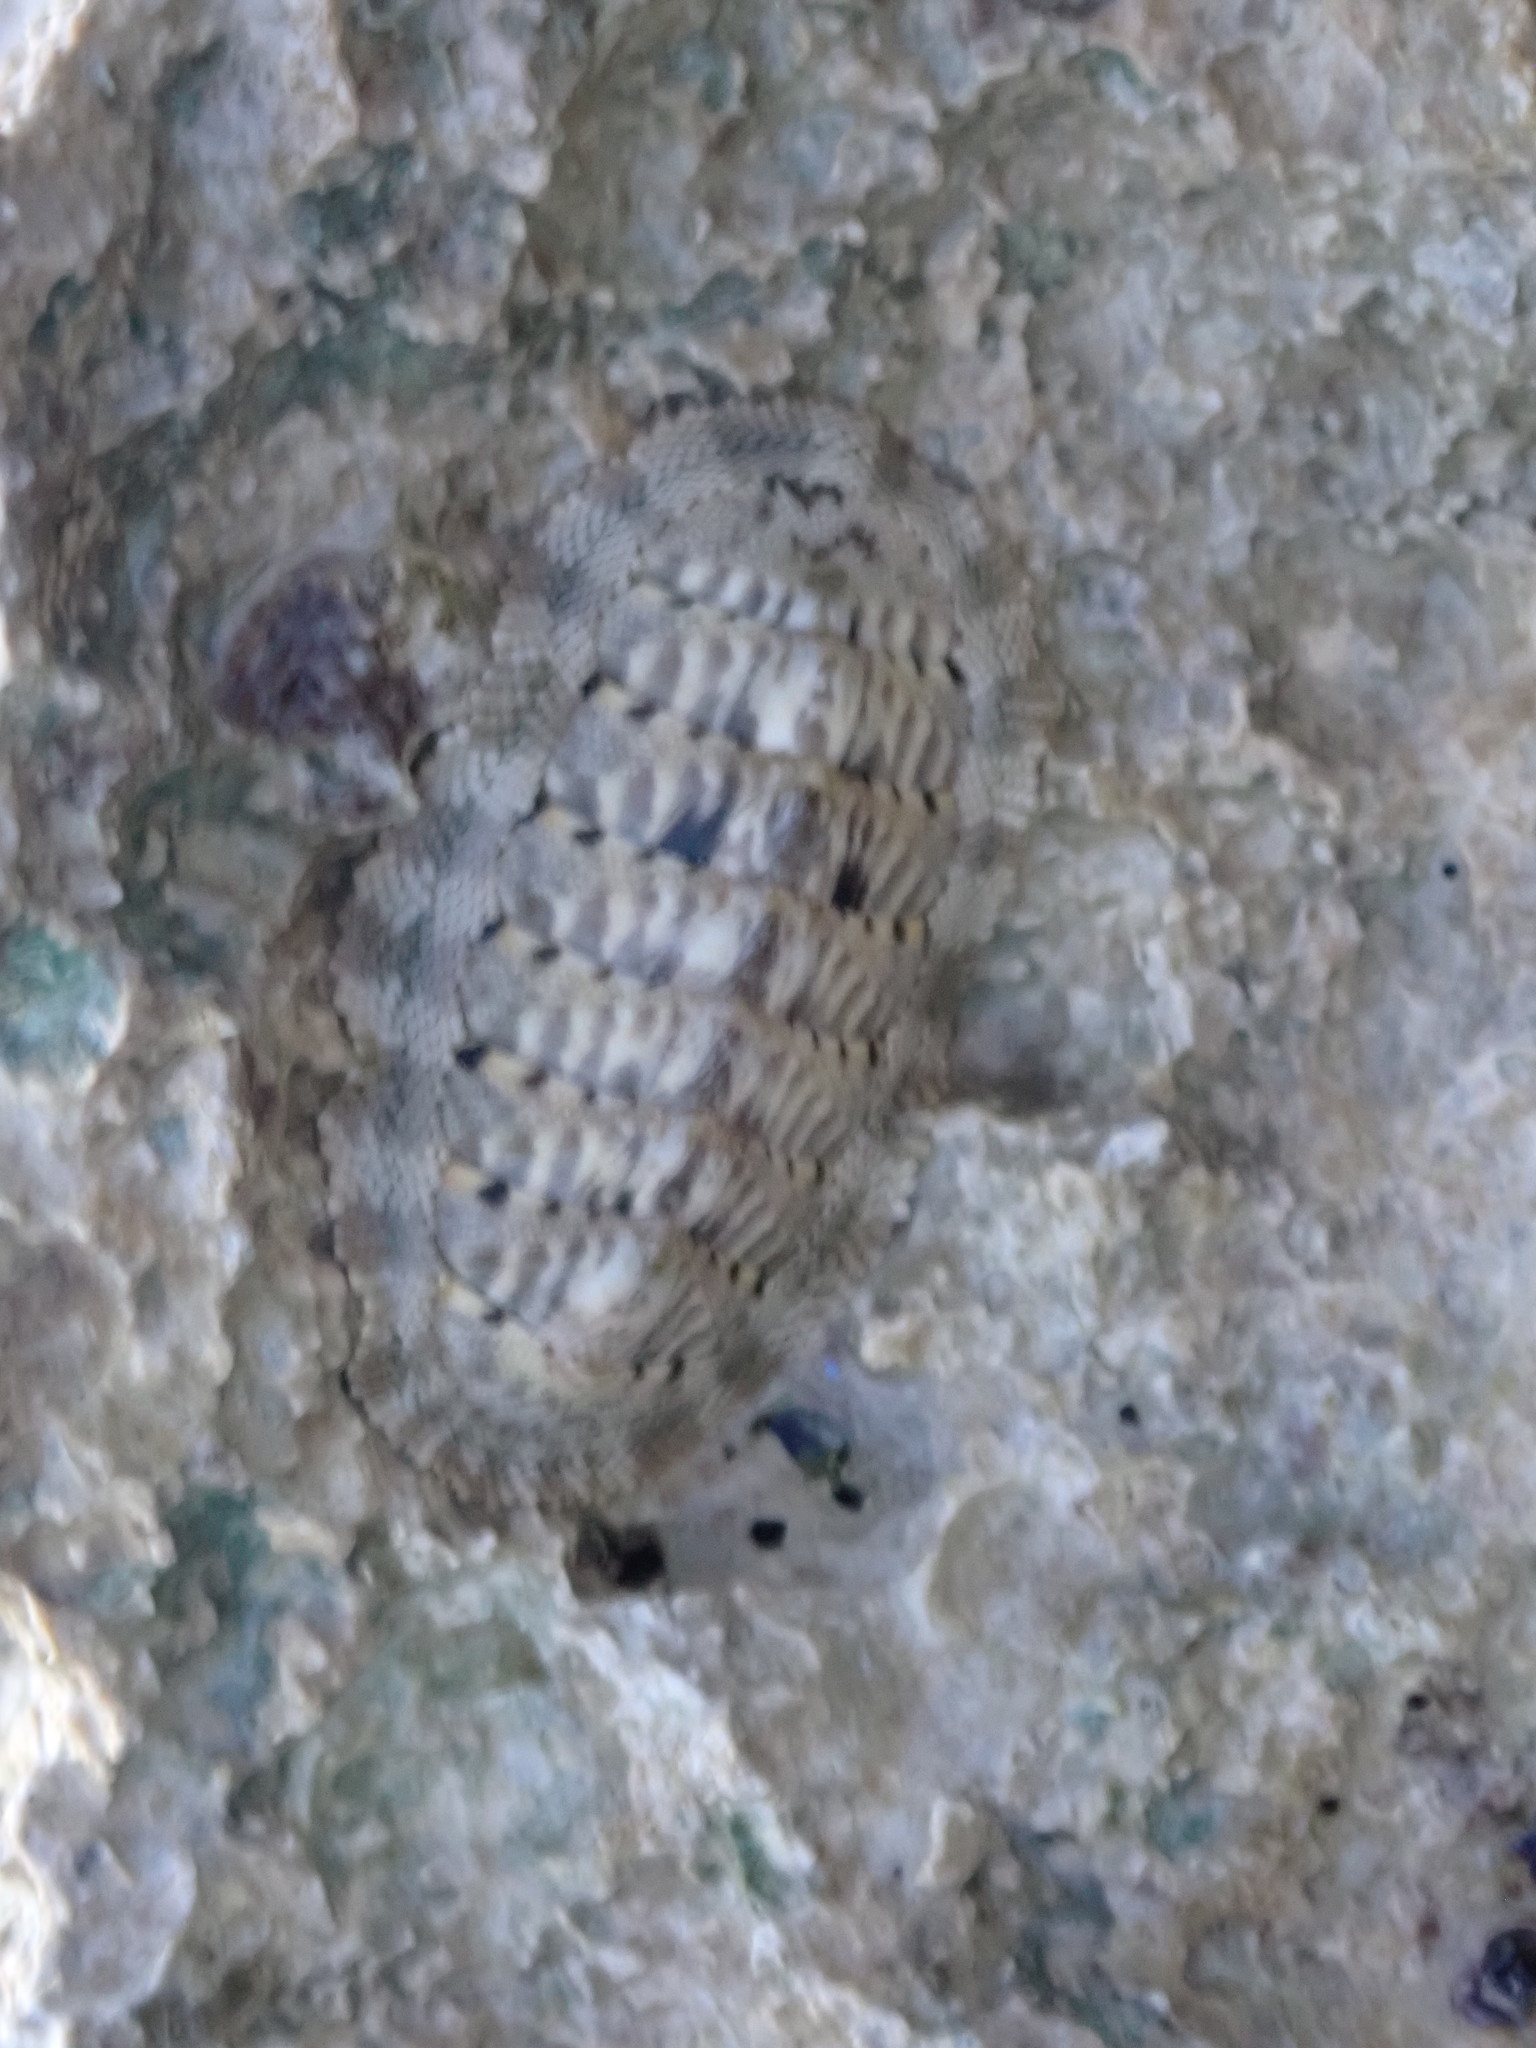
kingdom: Animalia
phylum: Mollusca
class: Polyplacophora
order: Chitonida
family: Chitonidae
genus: Chiton
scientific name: Chiton squamosus
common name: Squamose chiton
